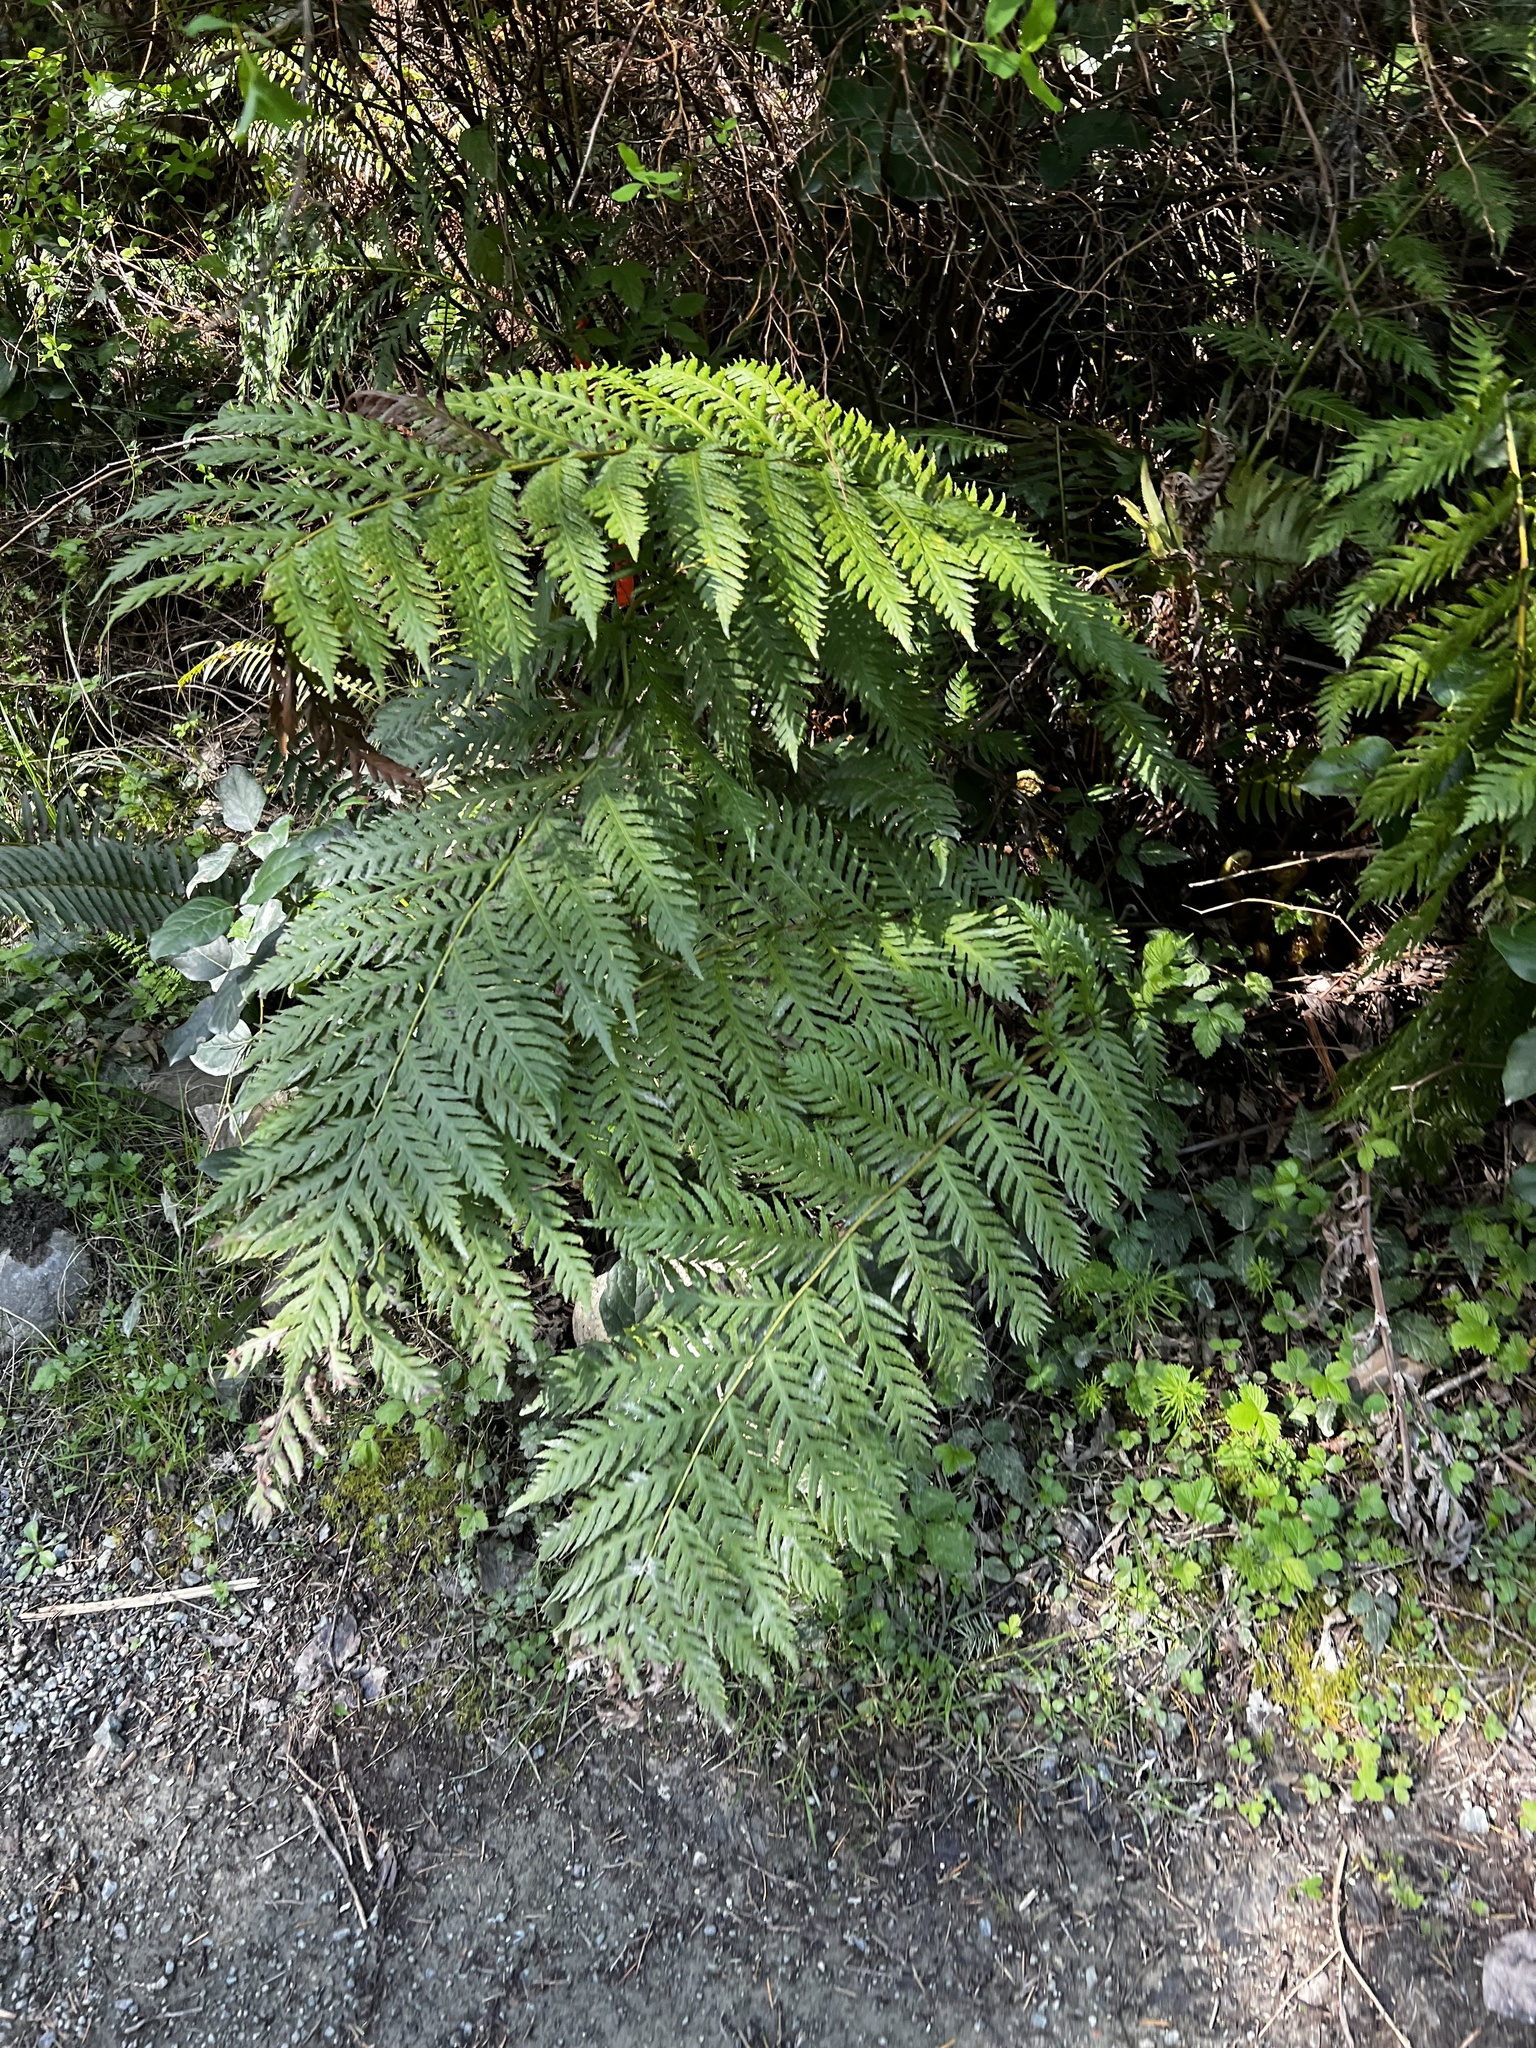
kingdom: Plantae
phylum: Tracheophyta
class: Polypodiopsida
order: Polypodiales
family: Blechnaceae
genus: Woodwardia
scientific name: Woodwardia fimbriata
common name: Giant chain fern
